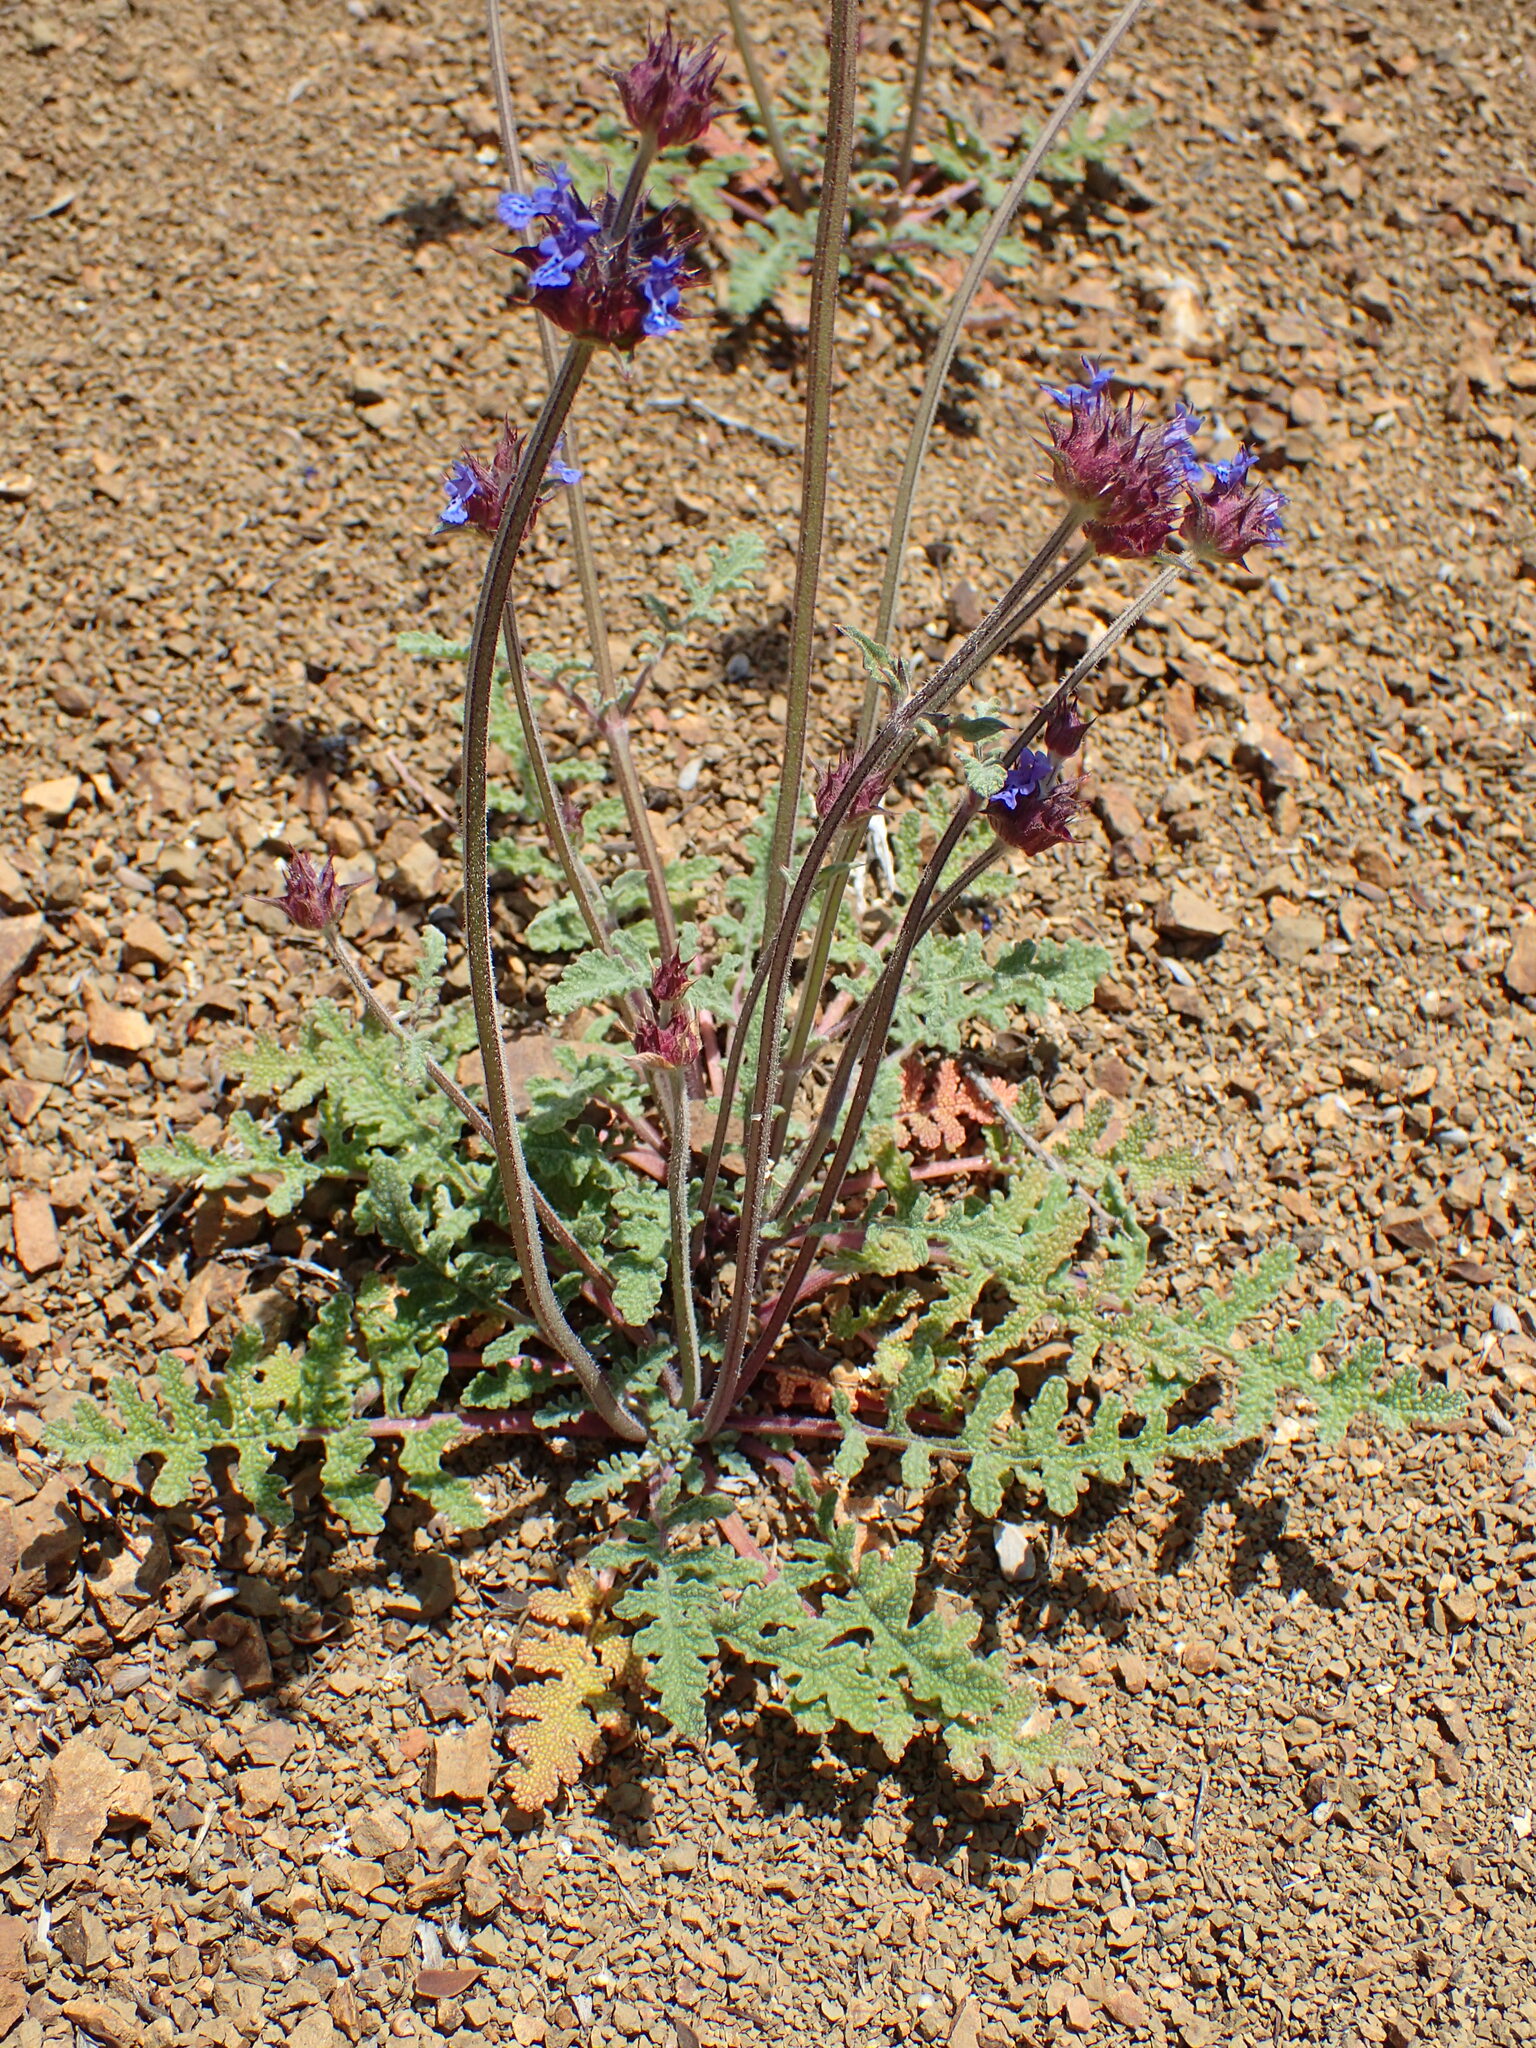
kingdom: Plantae
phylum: Tracheophyta
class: Magnoliopsida
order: Lamiales
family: Lamiaceae
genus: Salvia
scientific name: Salvia columbariae
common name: Chia
